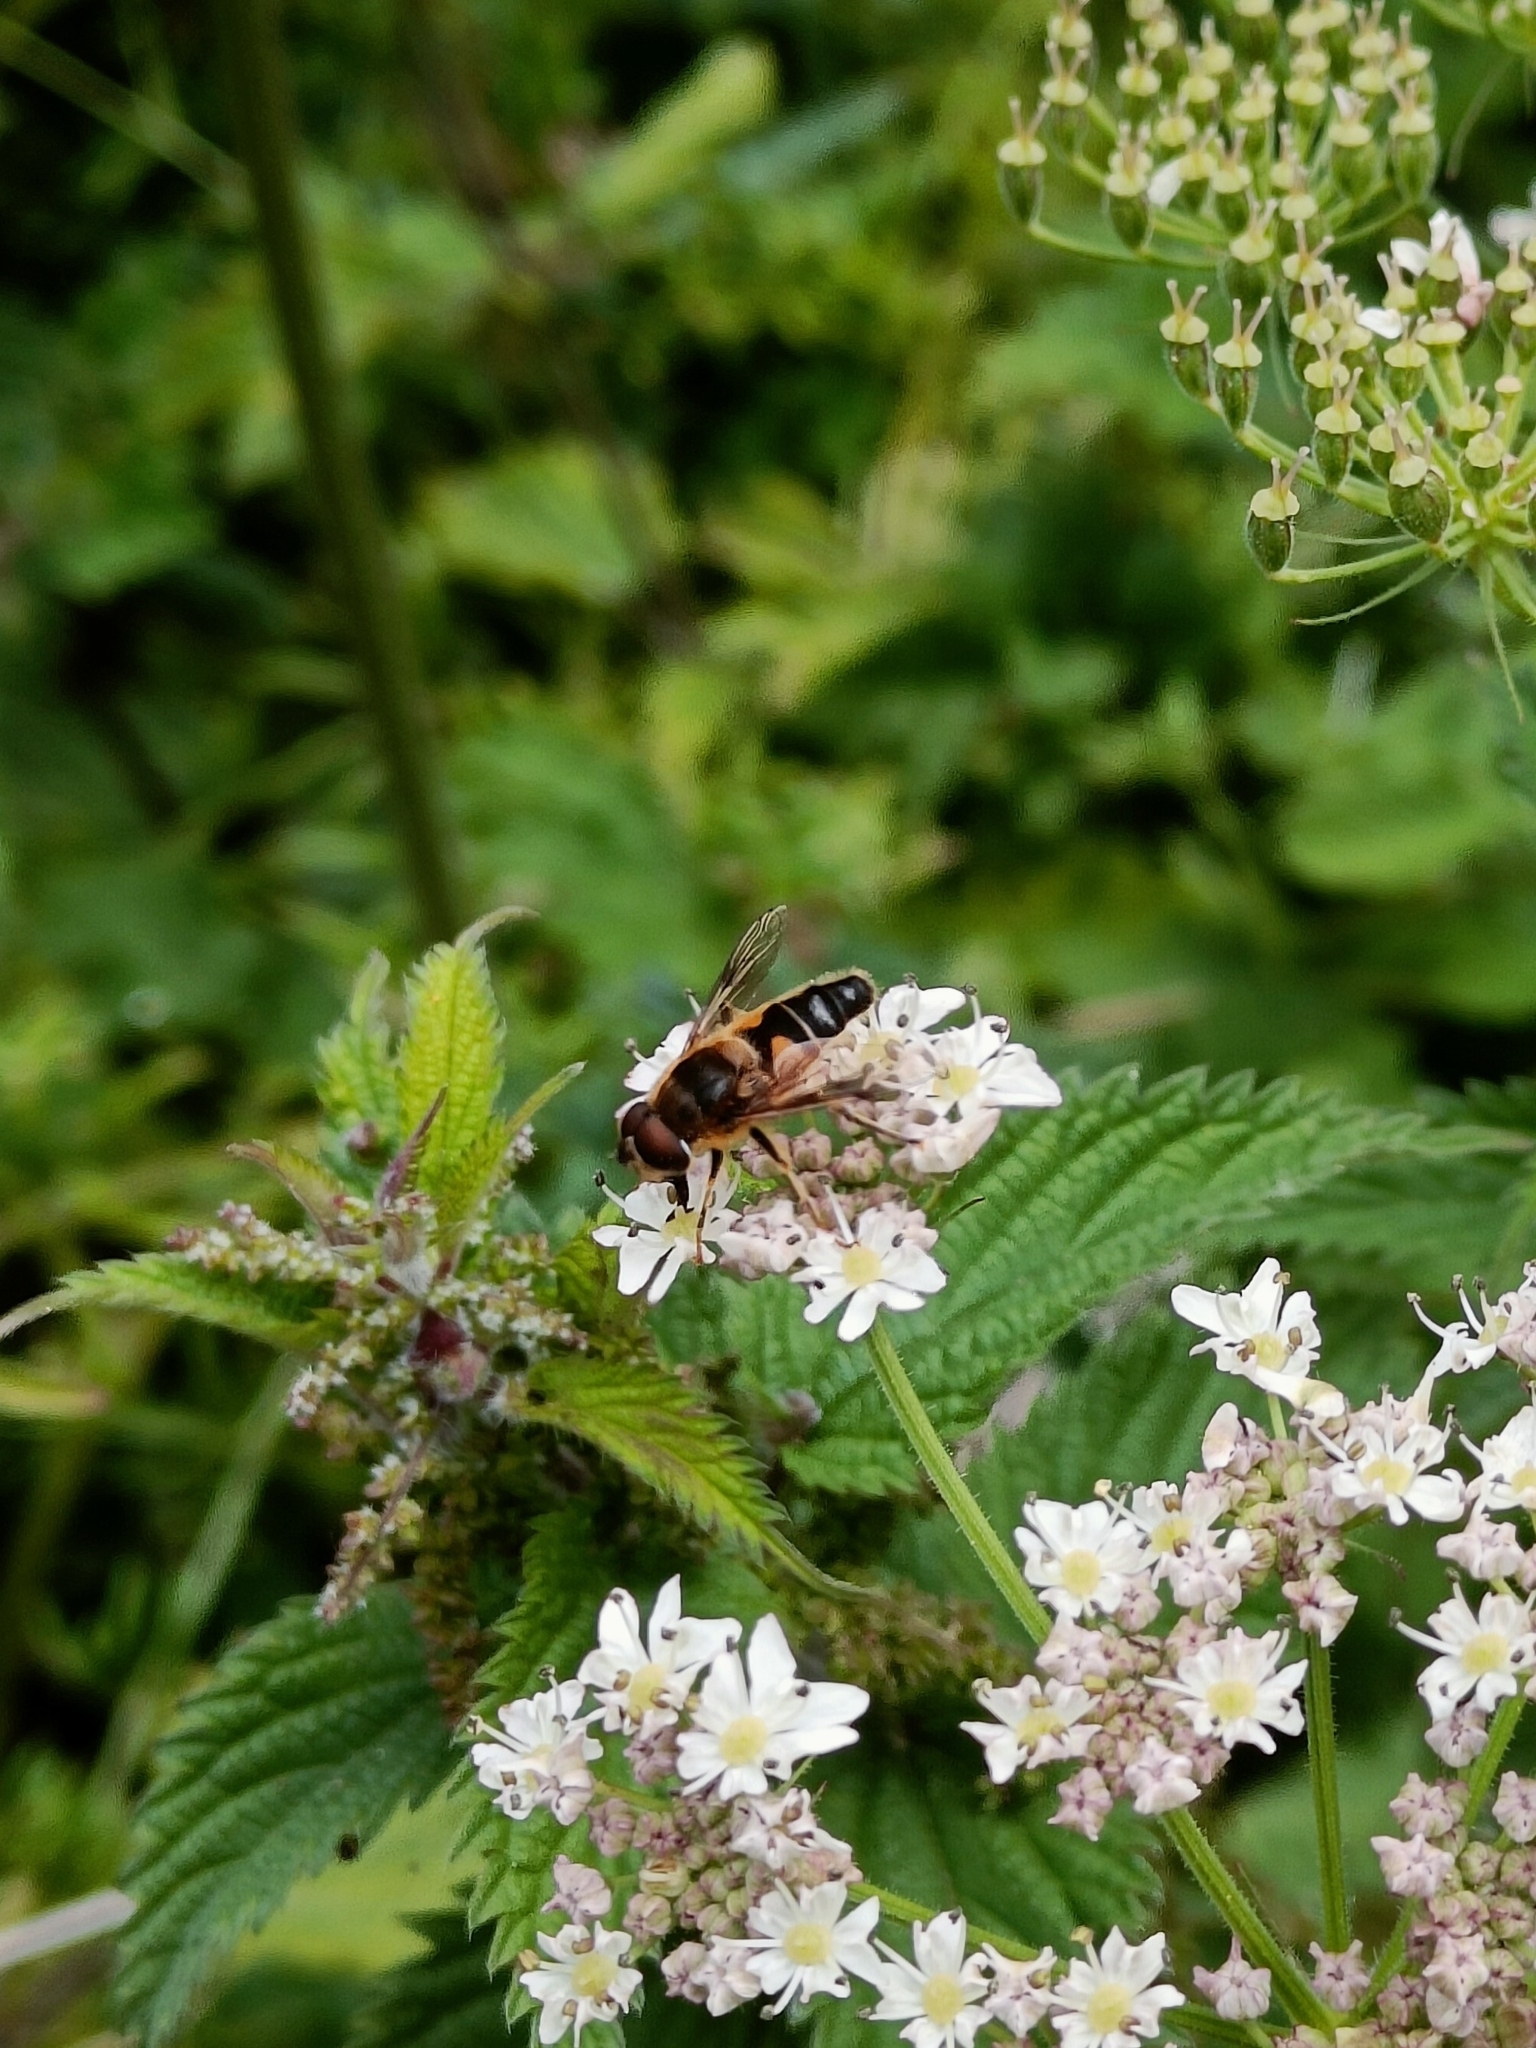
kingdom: Animalia
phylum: Arthropoda
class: Insecta
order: Diptera
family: Syrphidae
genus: Eristalis
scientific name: Eristalis pertinax
